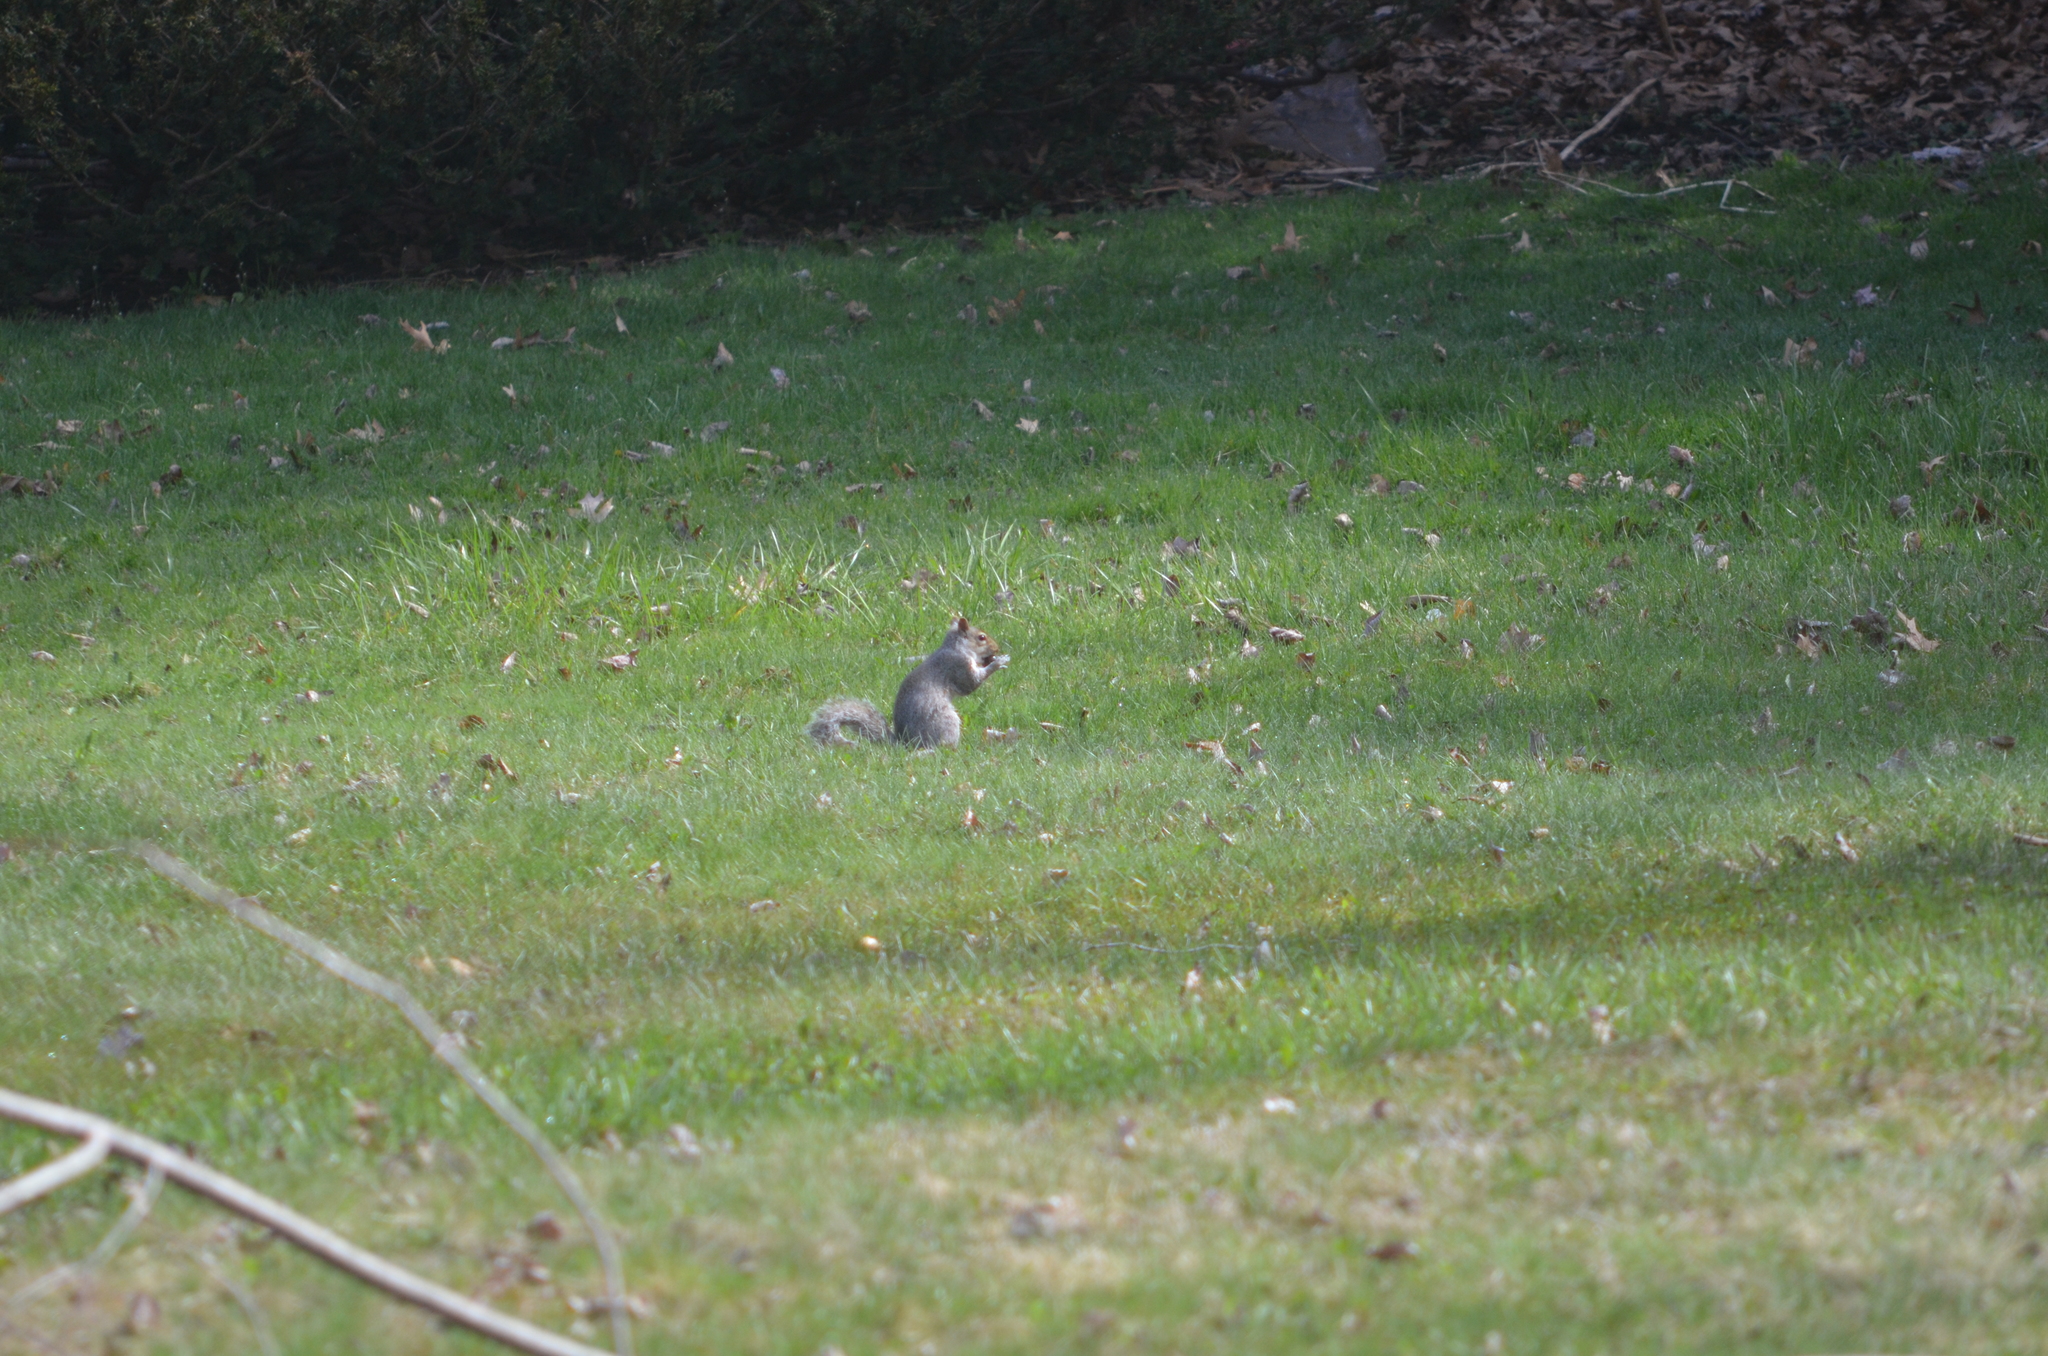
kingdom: Animalia
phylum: Chordata
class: Mammalia
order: Rodentia
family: Sciuridae
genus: Sciurus
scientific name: Sciurus carolinensis
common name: Eastern gray squirrel
